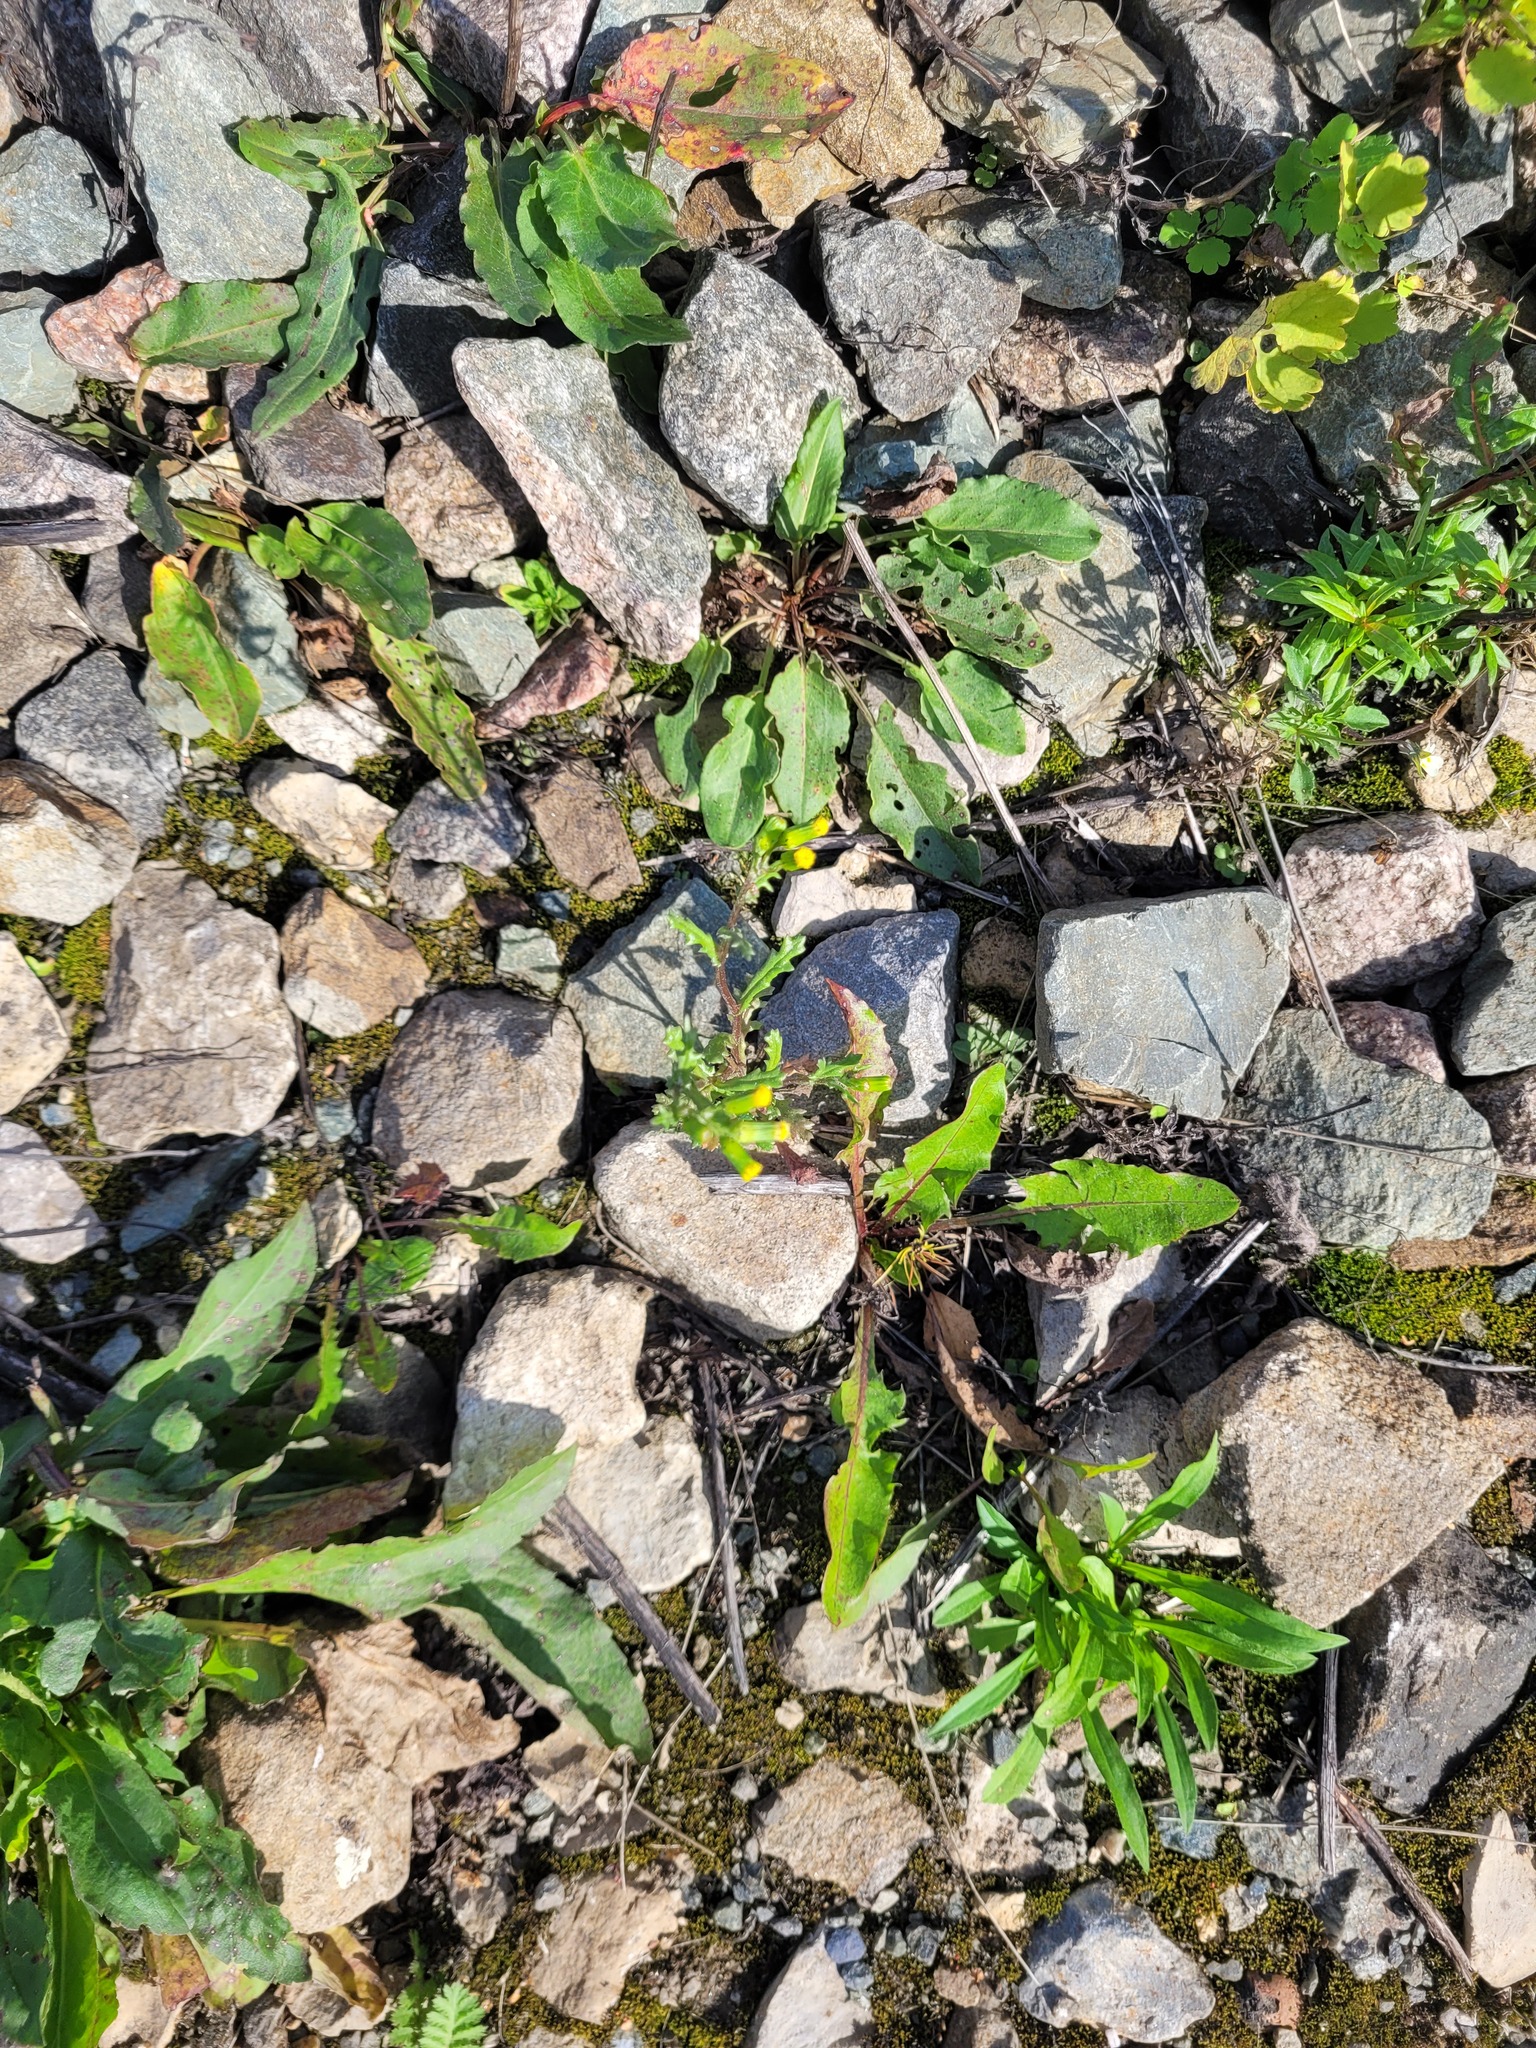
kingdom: Plantae
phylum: Tracheophyta
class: Magnoliopsida
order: Asterales
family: Asteraceae
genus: Senecio
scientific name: Senecio vulgaris
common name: Old-man-in-the-spring
